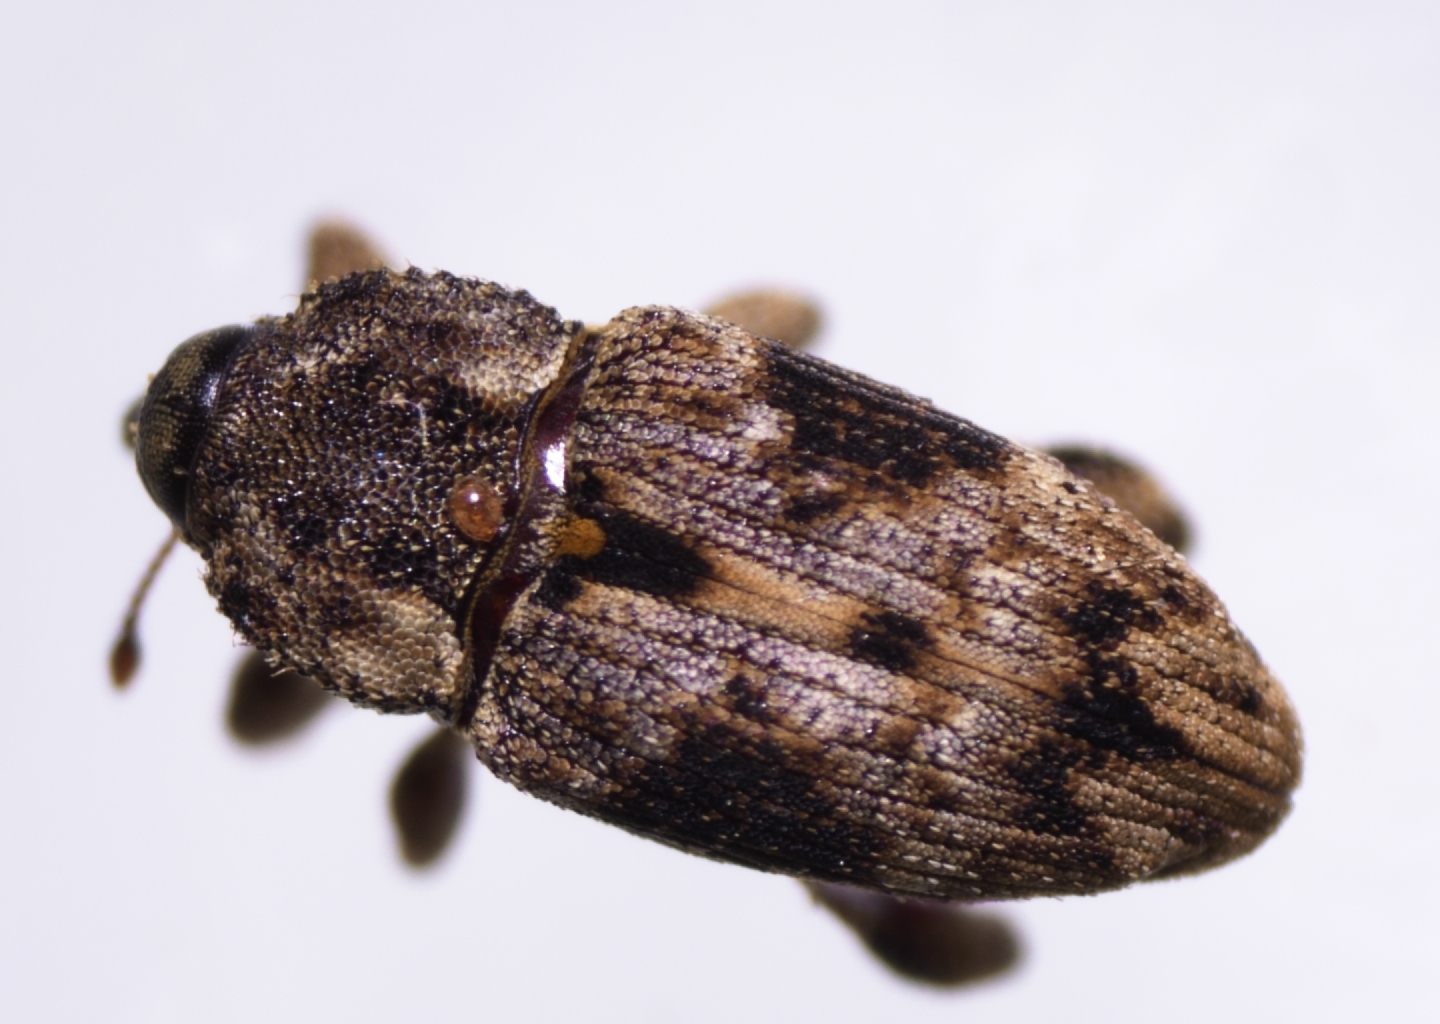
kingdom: Animalia
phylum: Arthropoda
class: Insecta
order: Coleoptera
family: Curculionidae
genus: Acicnemis
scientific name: Acicnemis variegata
